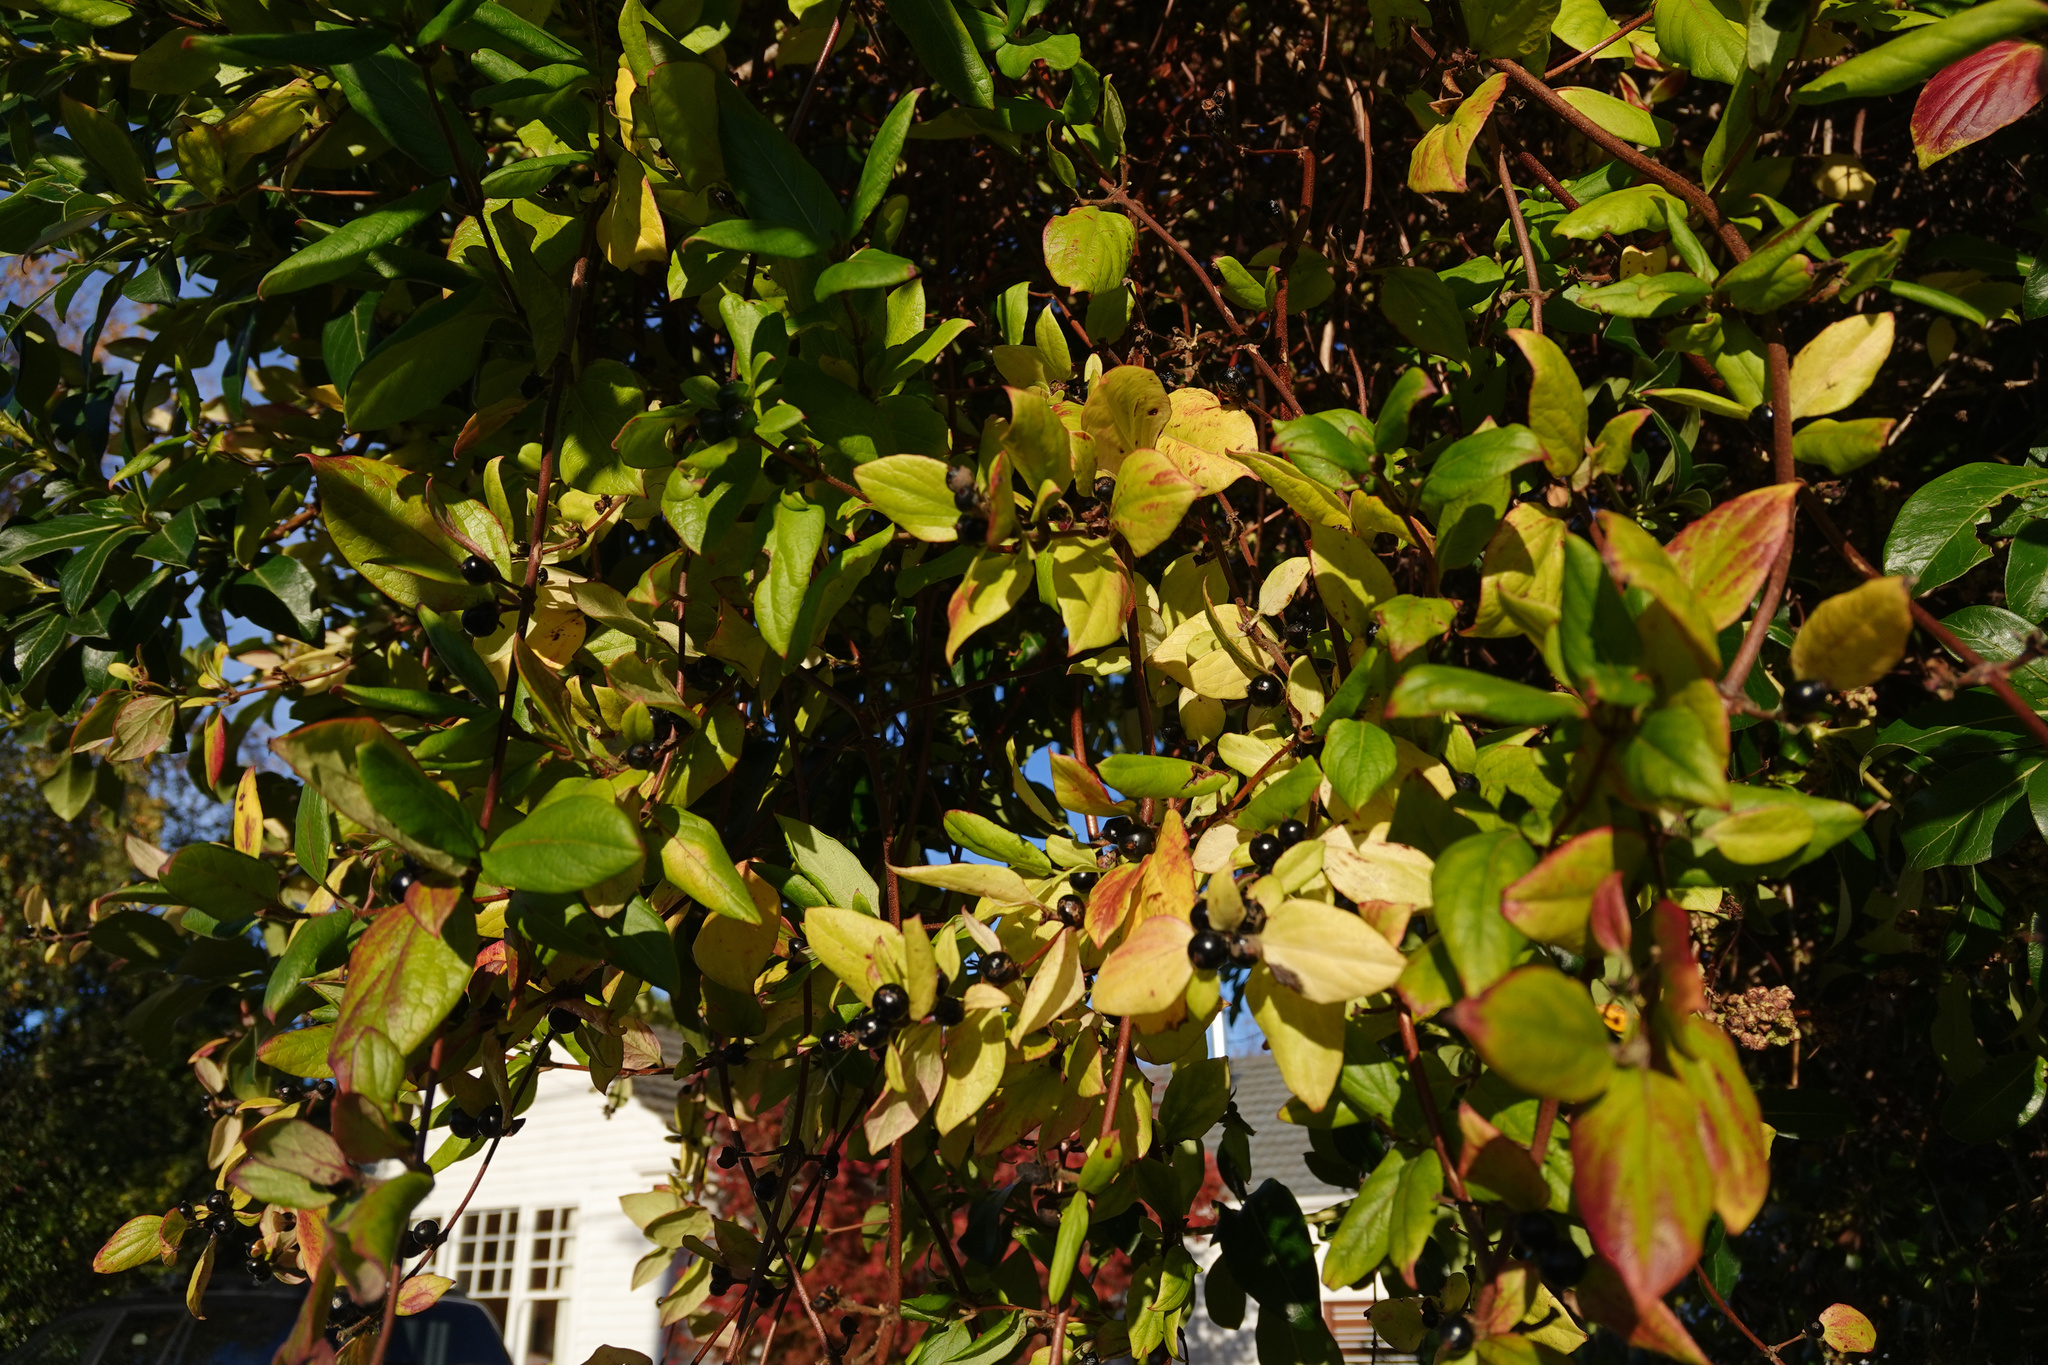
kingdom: Plantae
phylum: Tracheophyta
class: Magnoliopsida
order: Dipsacales
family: Caprifoliaceae
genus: Lonicera
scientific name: Lonicera japonica
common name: Japanese honeysuckle
